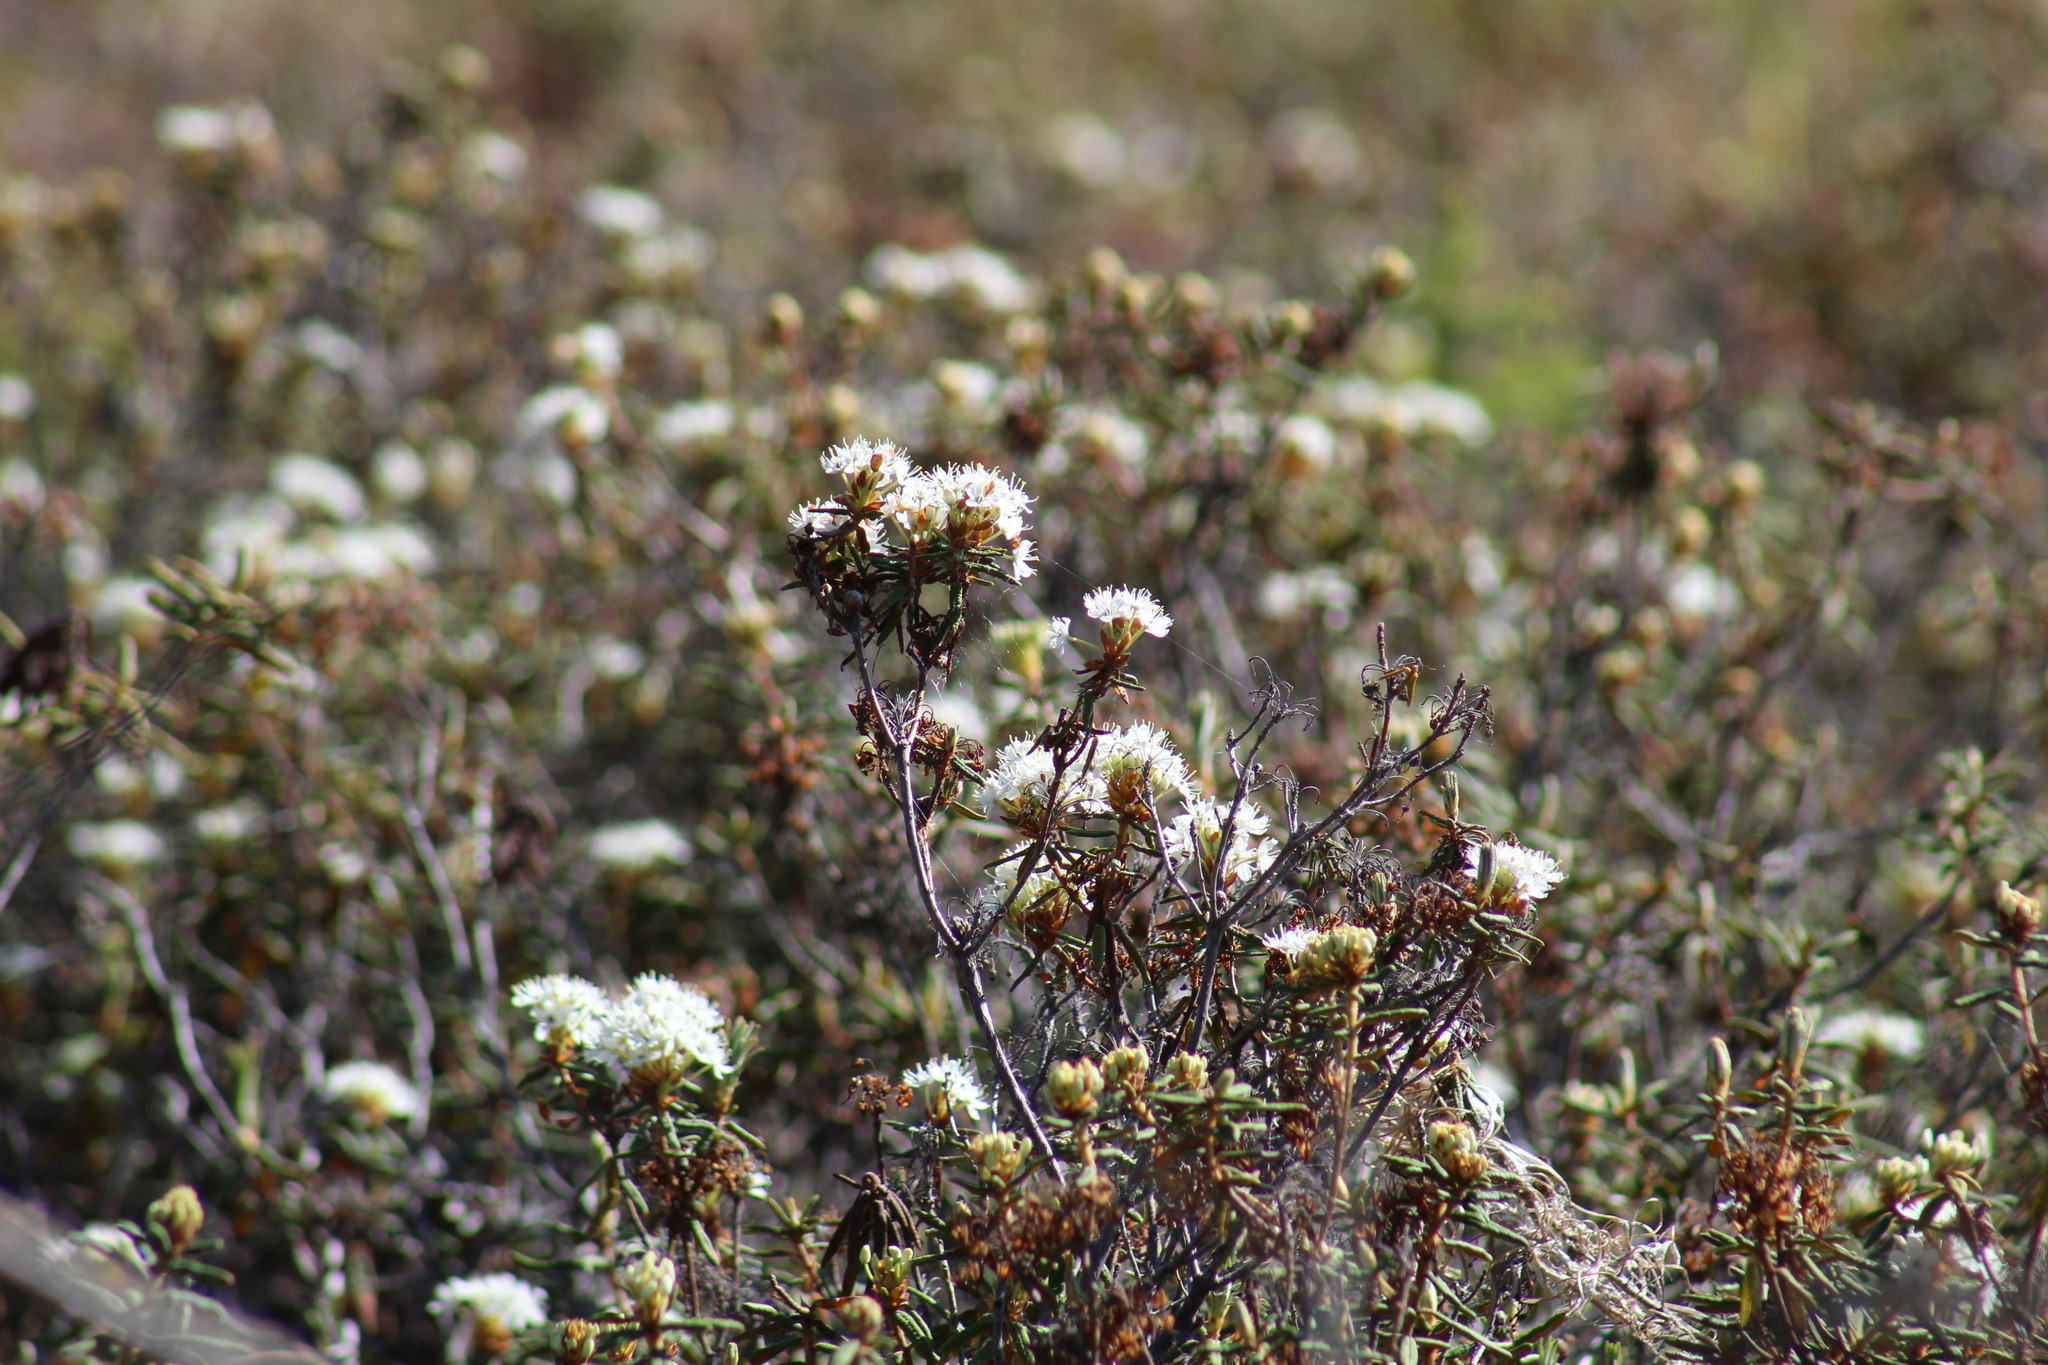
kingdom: Plantae
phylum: Tracheophyta
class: Magnoliopsida
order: Ericales
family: Ericaceae
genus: Rhododendron
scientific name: Rhododendron tomentosum
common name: Marsh labrador tea
